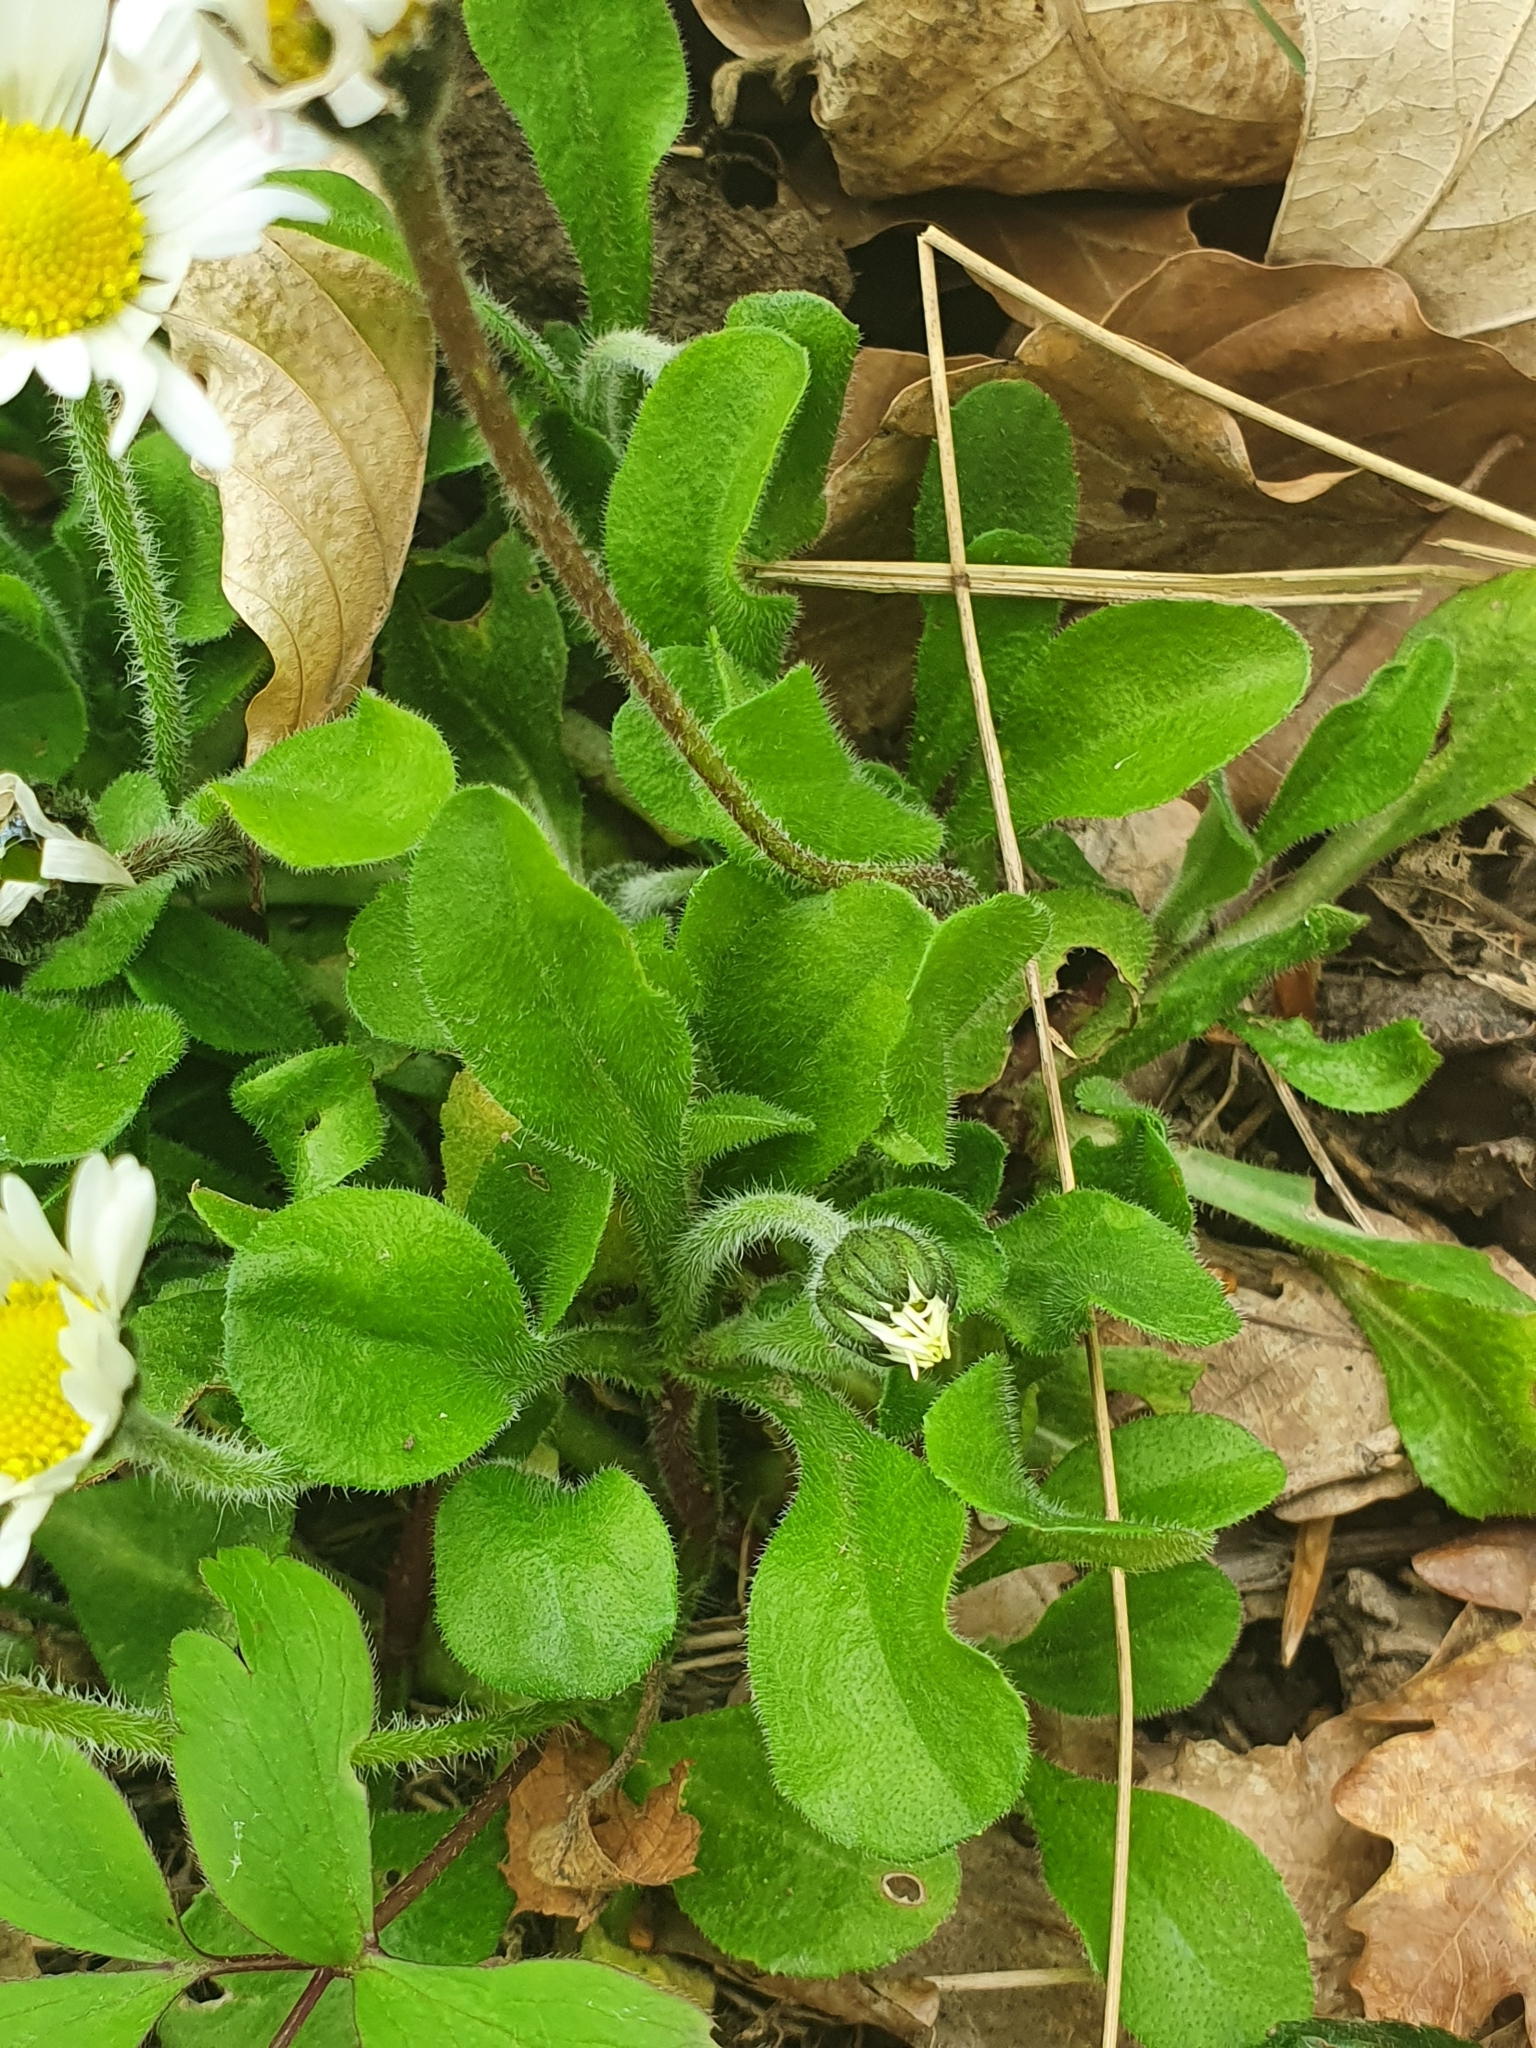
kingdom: Plantae
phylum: Tracheophyta
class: Magnoliopsida
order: Asterales
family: Asteraceae
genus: Bellis
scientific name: Bellis perennis
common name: Lawndaisy
